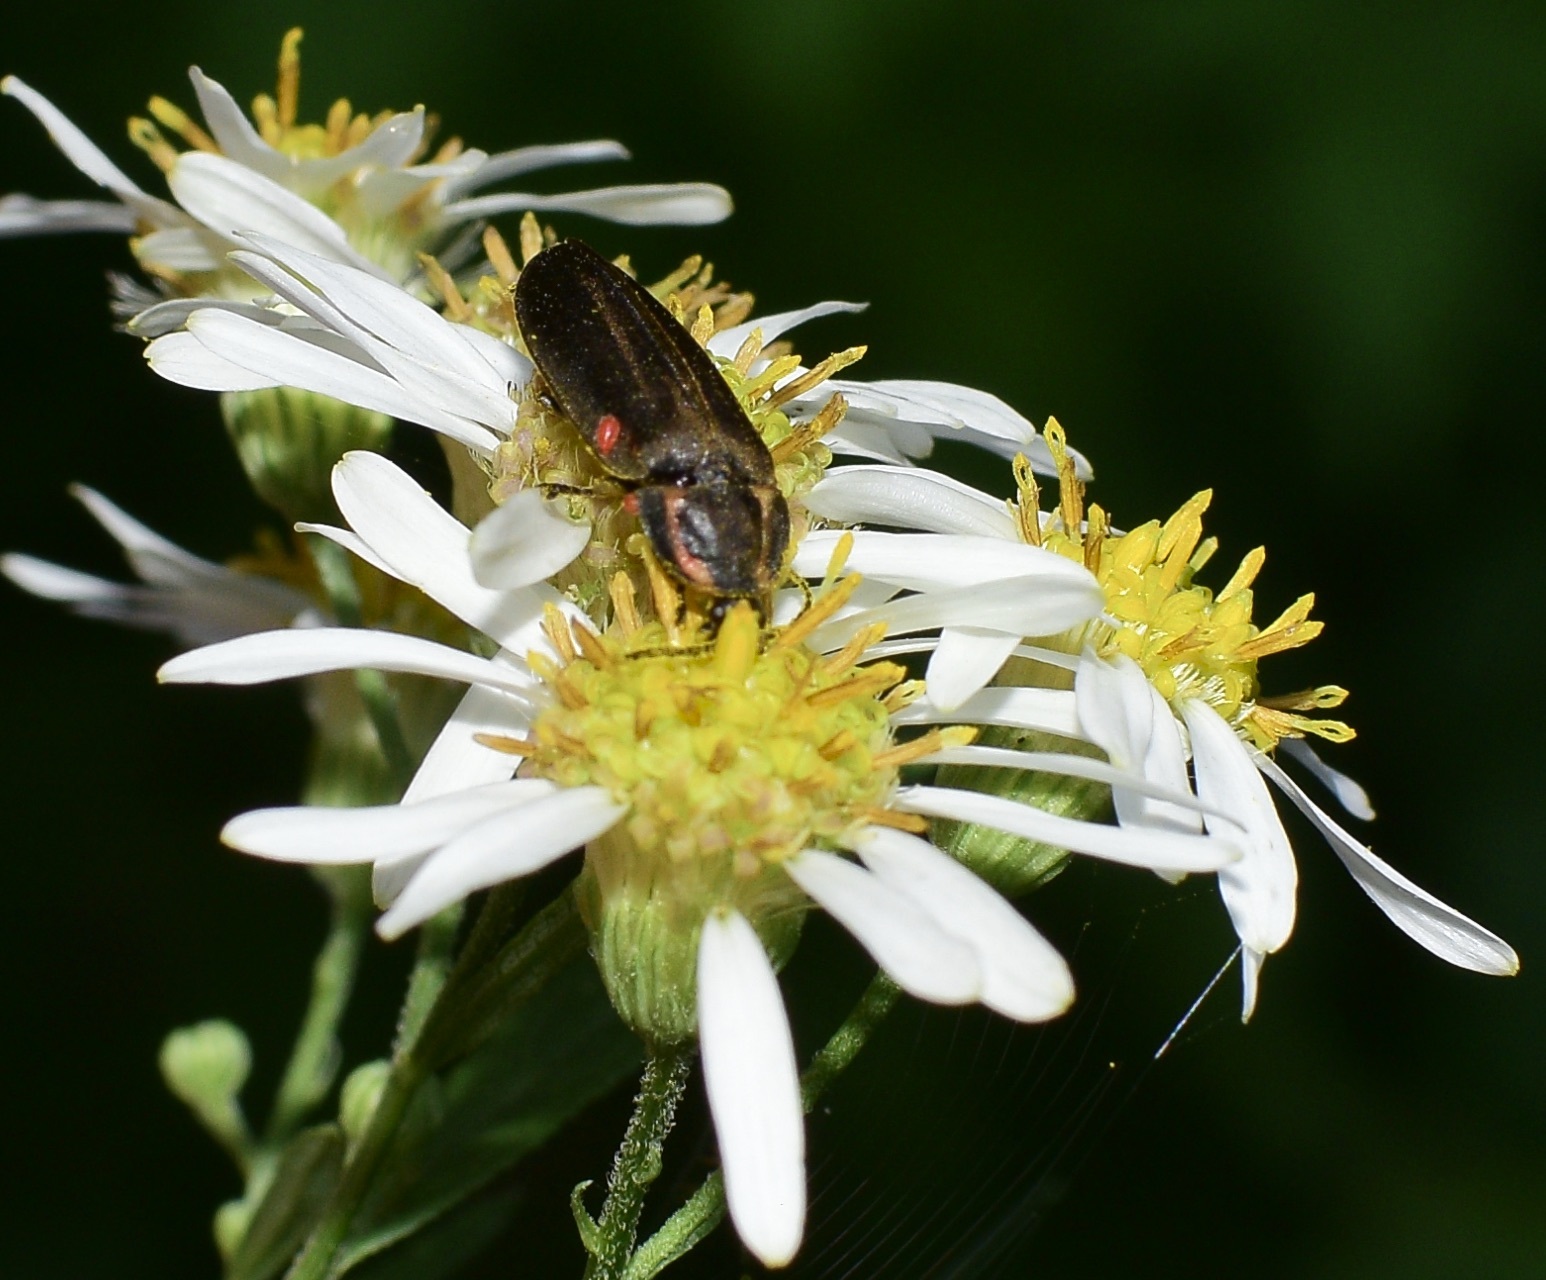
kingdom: Animalia
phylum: Arthropoda
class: Insecta
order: Coleoptera
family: Lampyridae
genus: Photinus
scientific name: Photinus corrusca
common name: Winter firefly
